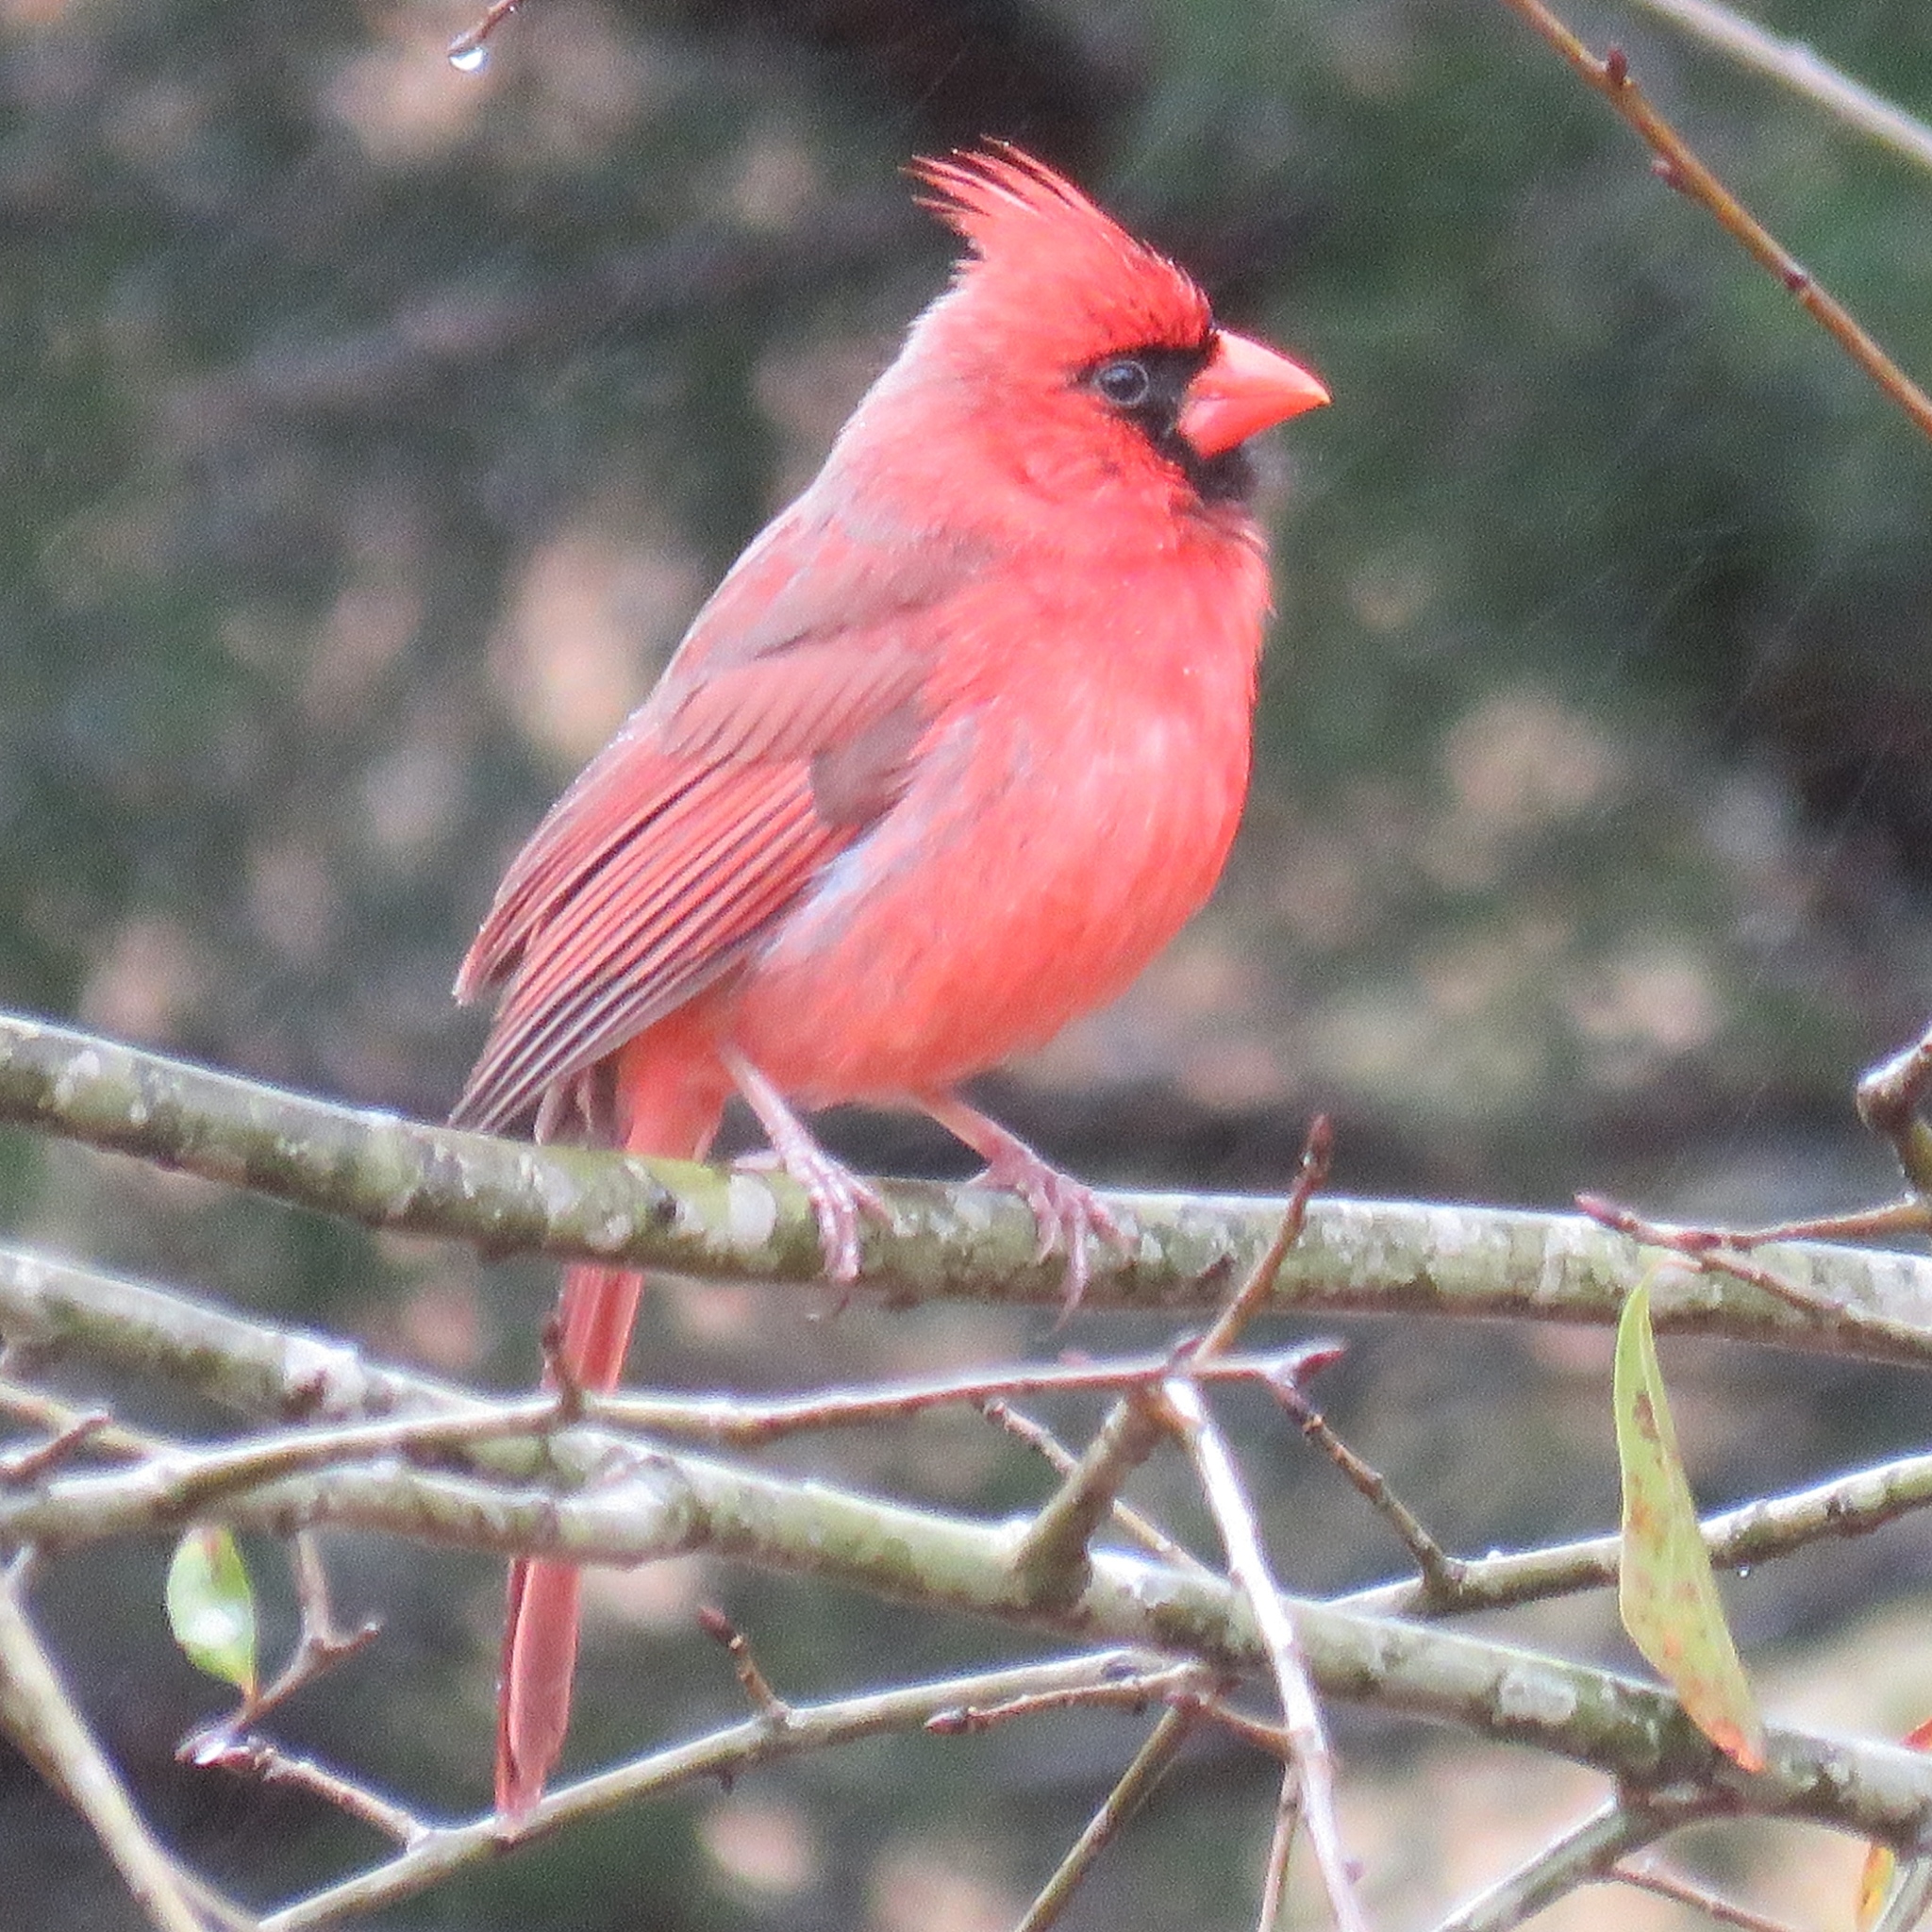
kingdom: Animalia
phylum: Chordata
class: Aves
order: Passeriformes
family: Cardinalidae
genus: Cardinalis
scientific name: Cardinalis cardinalis
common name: Northern cardinal
